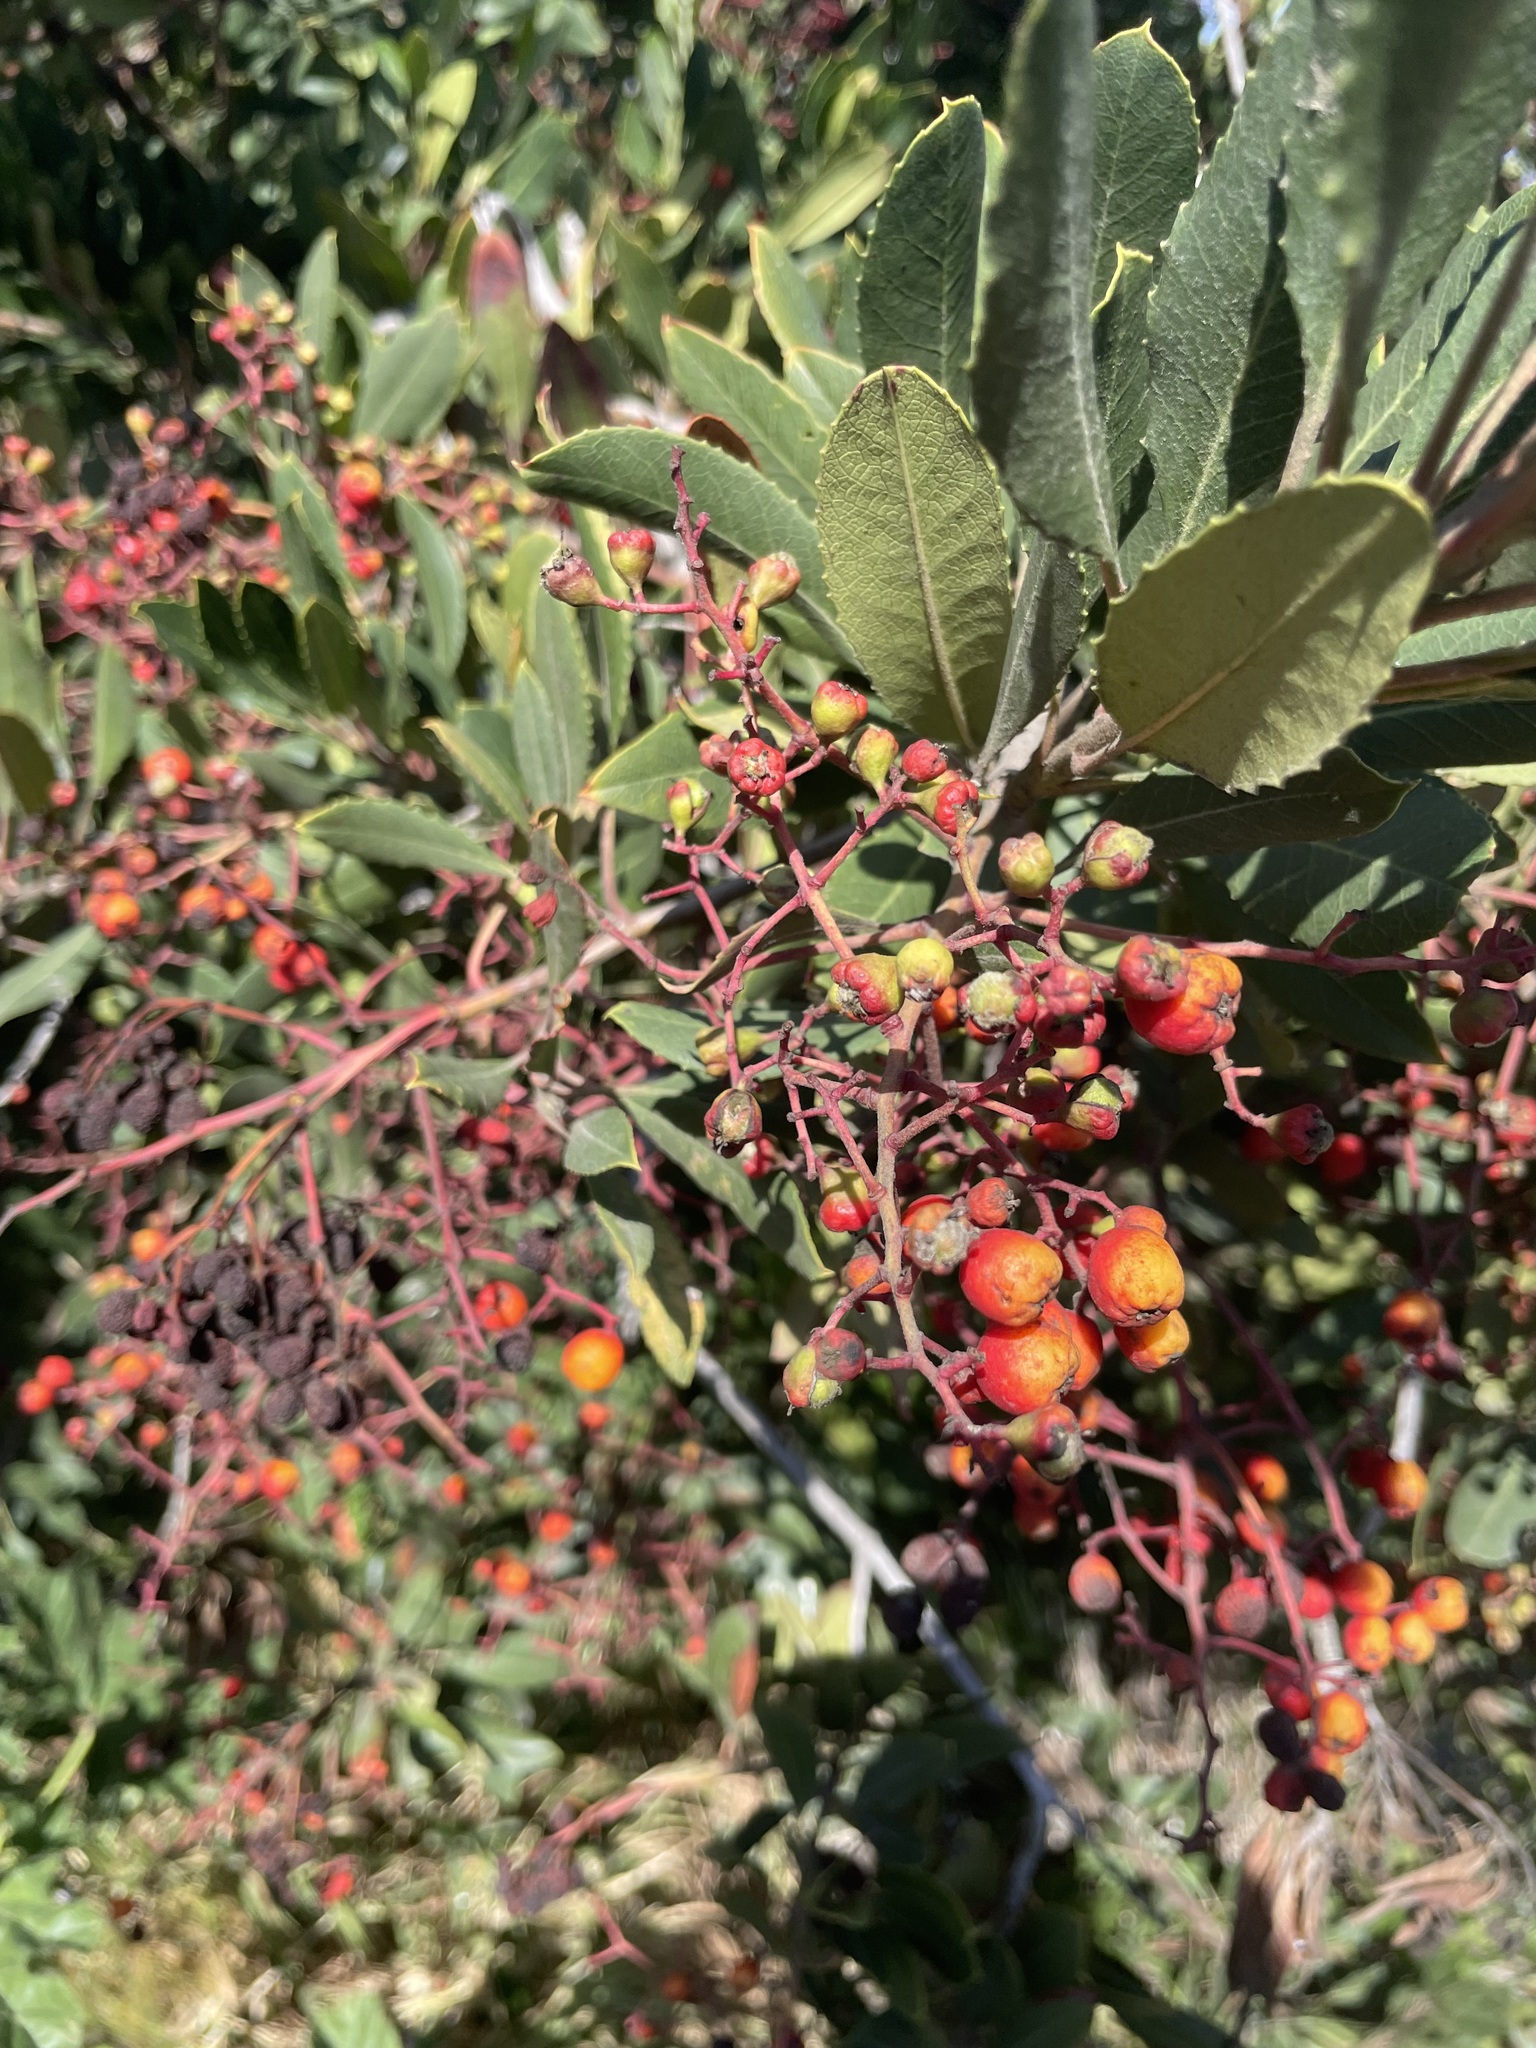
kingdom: Animalia
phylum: Arthropoda
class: Insecta
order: Diptera
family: Cecidomyiidae
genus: Asphondylia
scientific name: Asphondylia photiniae
